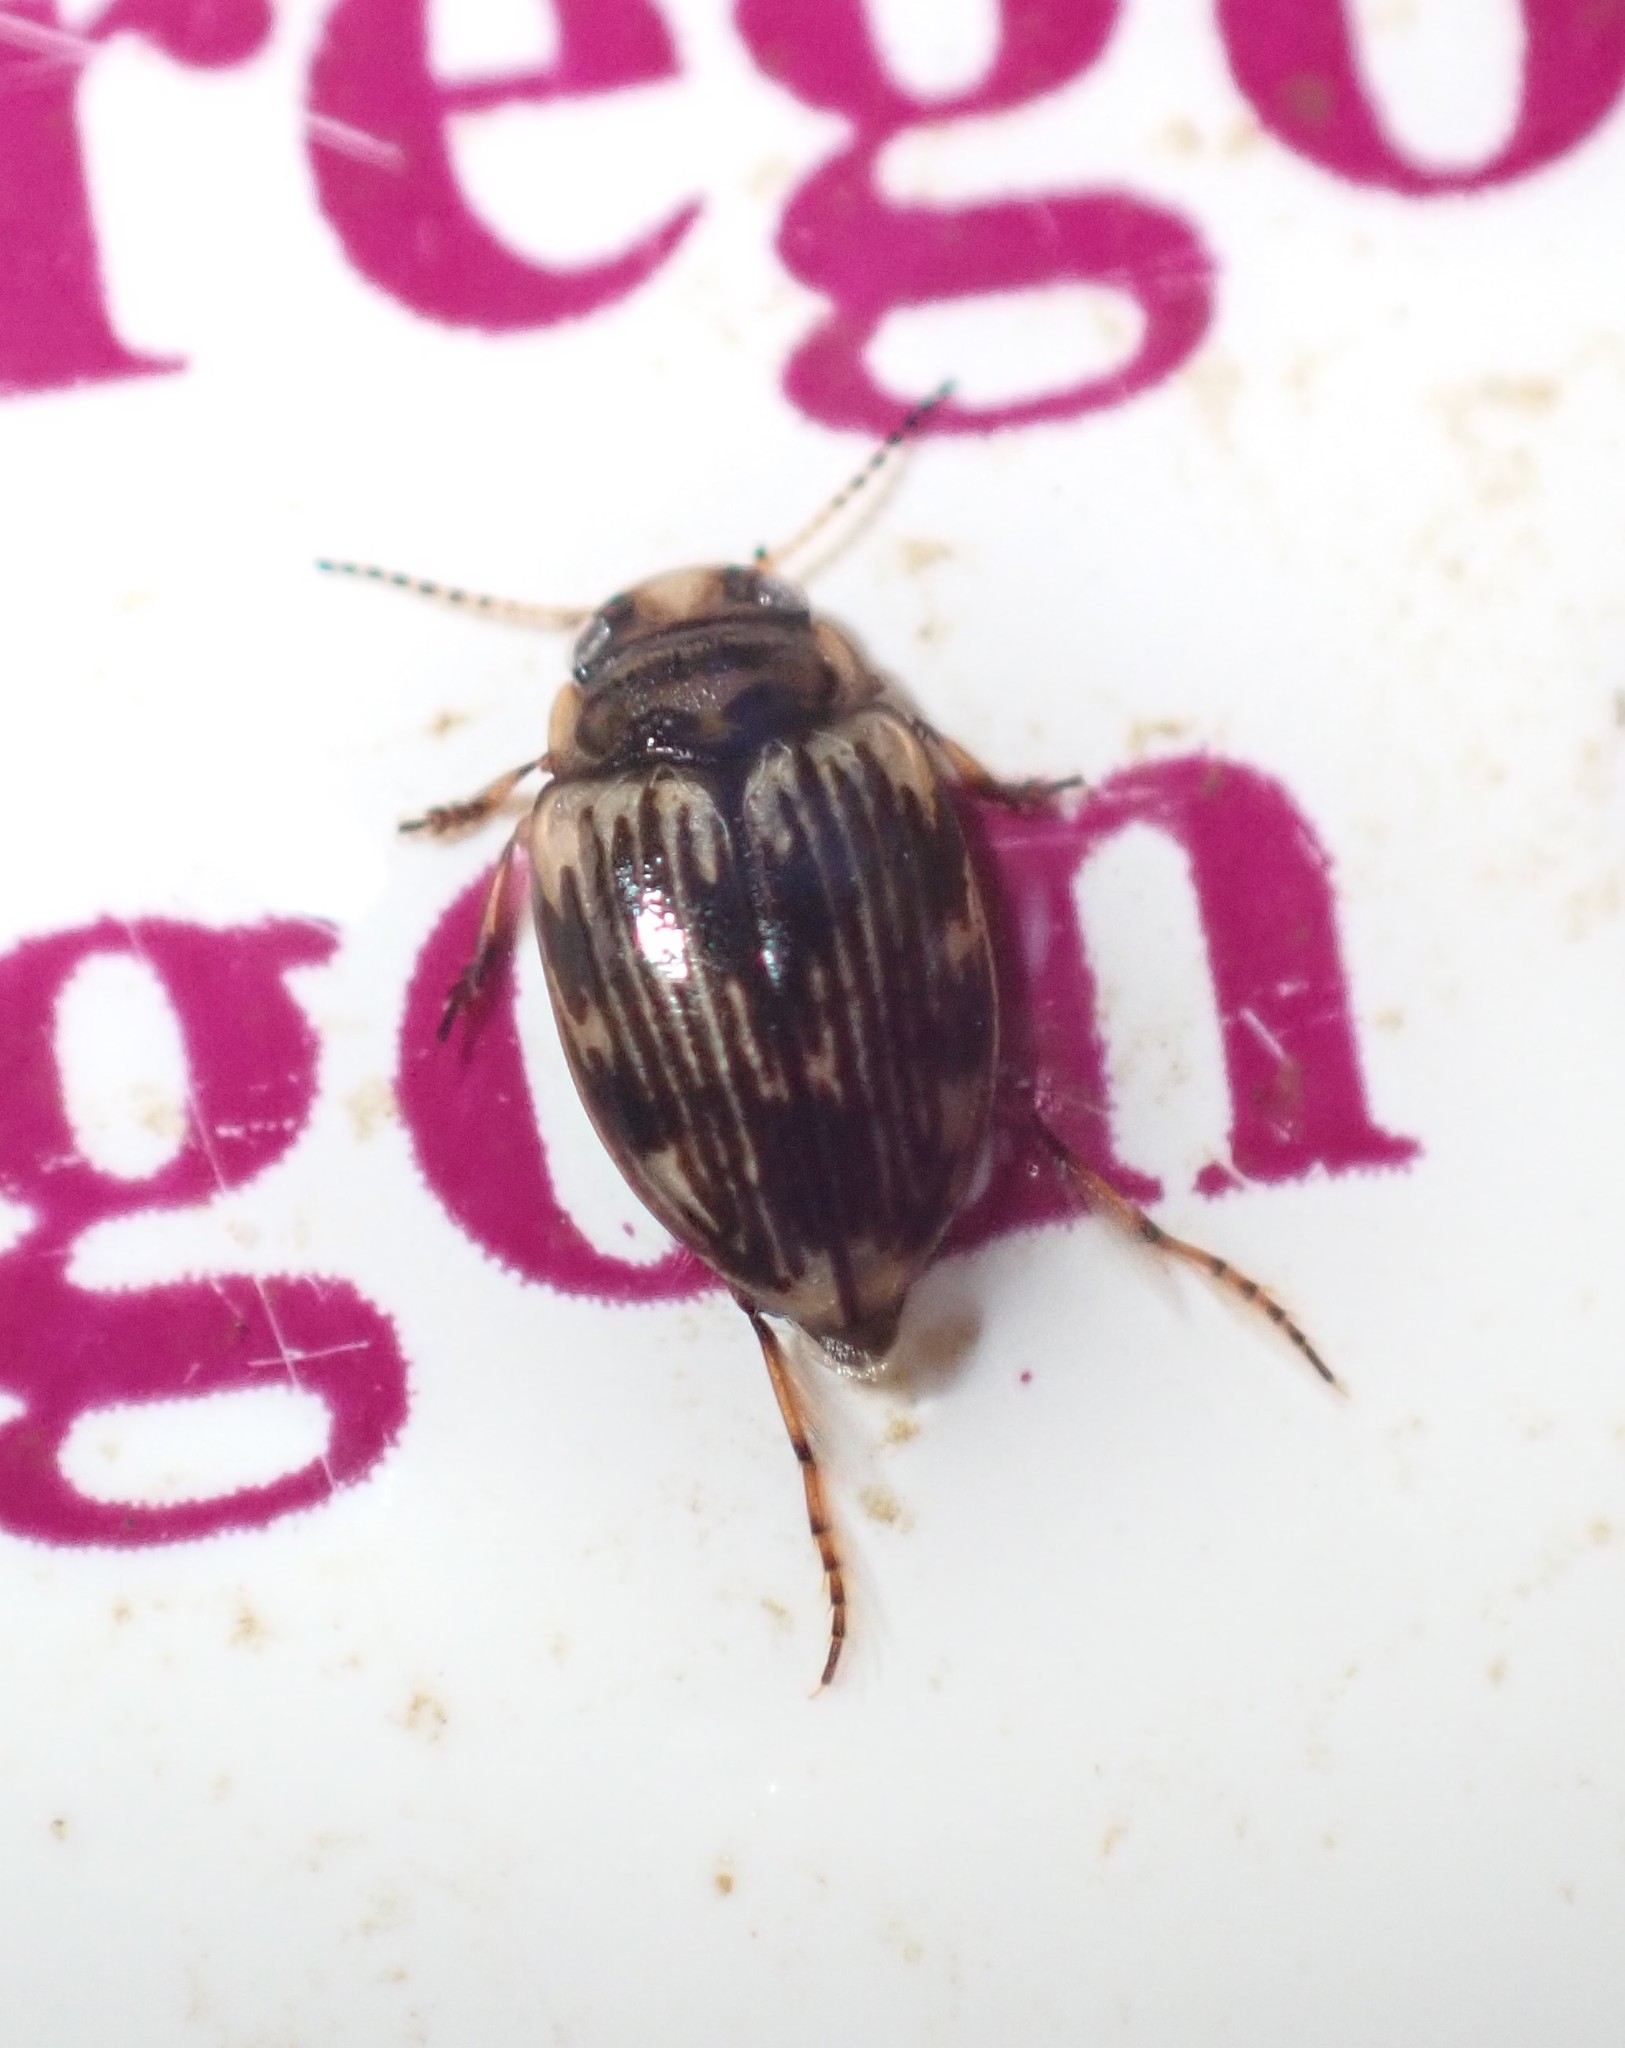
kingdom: Animalia
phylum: Arthropoda
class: Insecta
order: Coleoptera
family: Dytiscidae
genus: Oreodytes
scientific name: Oreodytes scitulus
